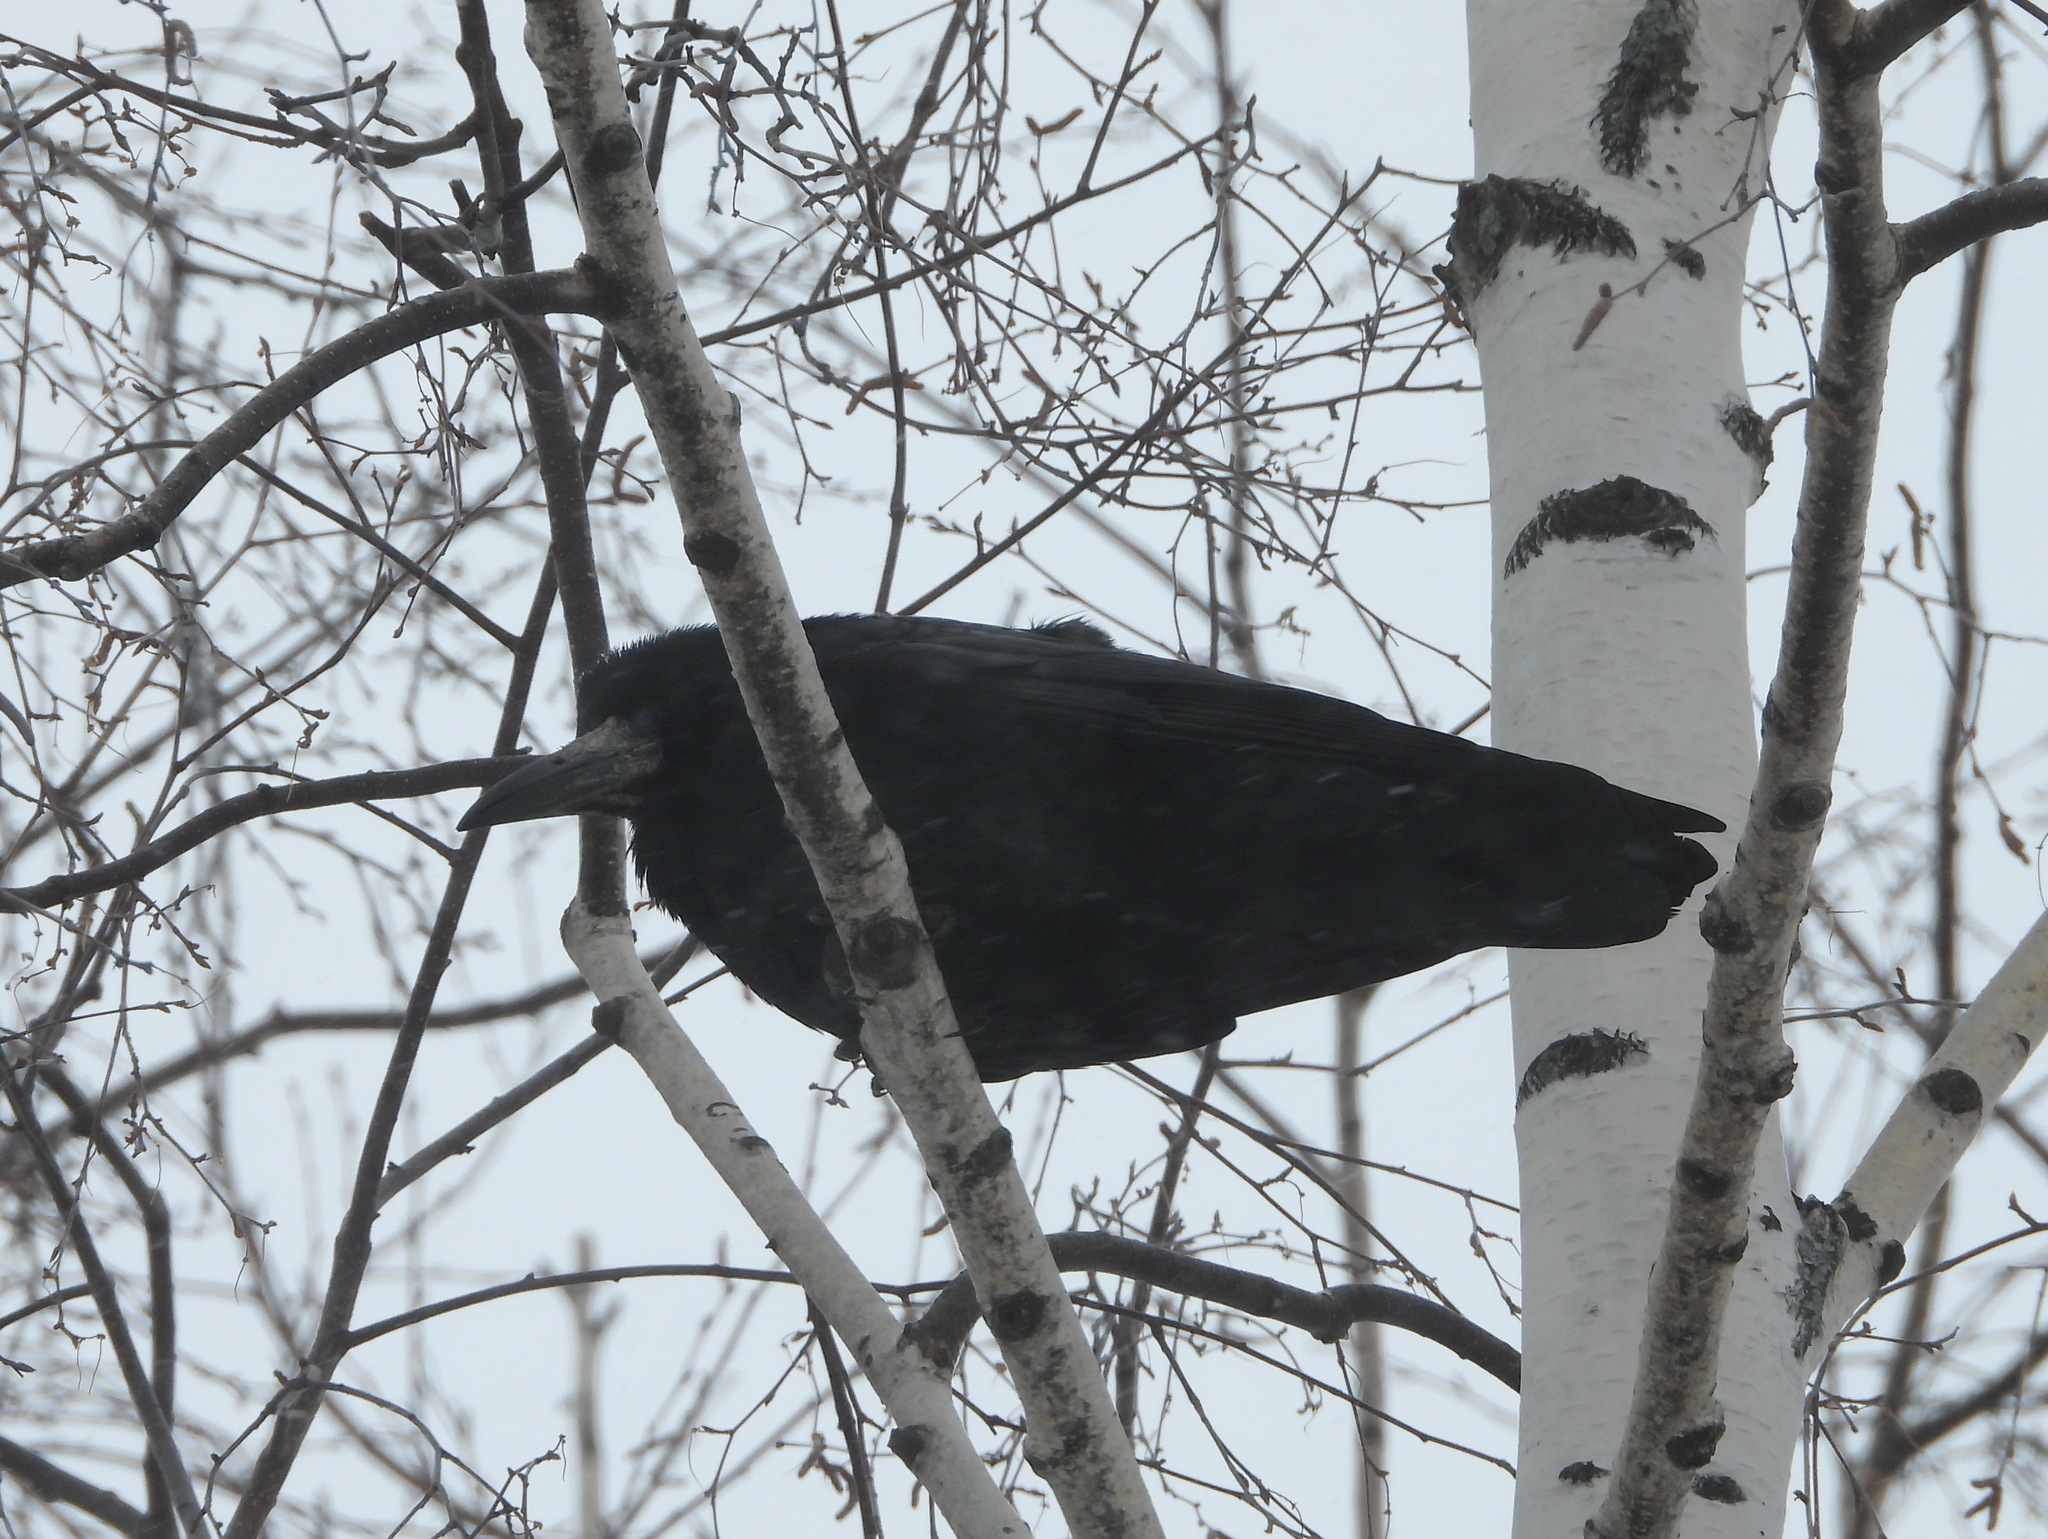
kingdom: Animalia
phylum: Chordata
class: Aves
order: Passeriformes
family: Corvidae
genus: Corvus
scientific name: Corvus frugilegus
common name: Rook
